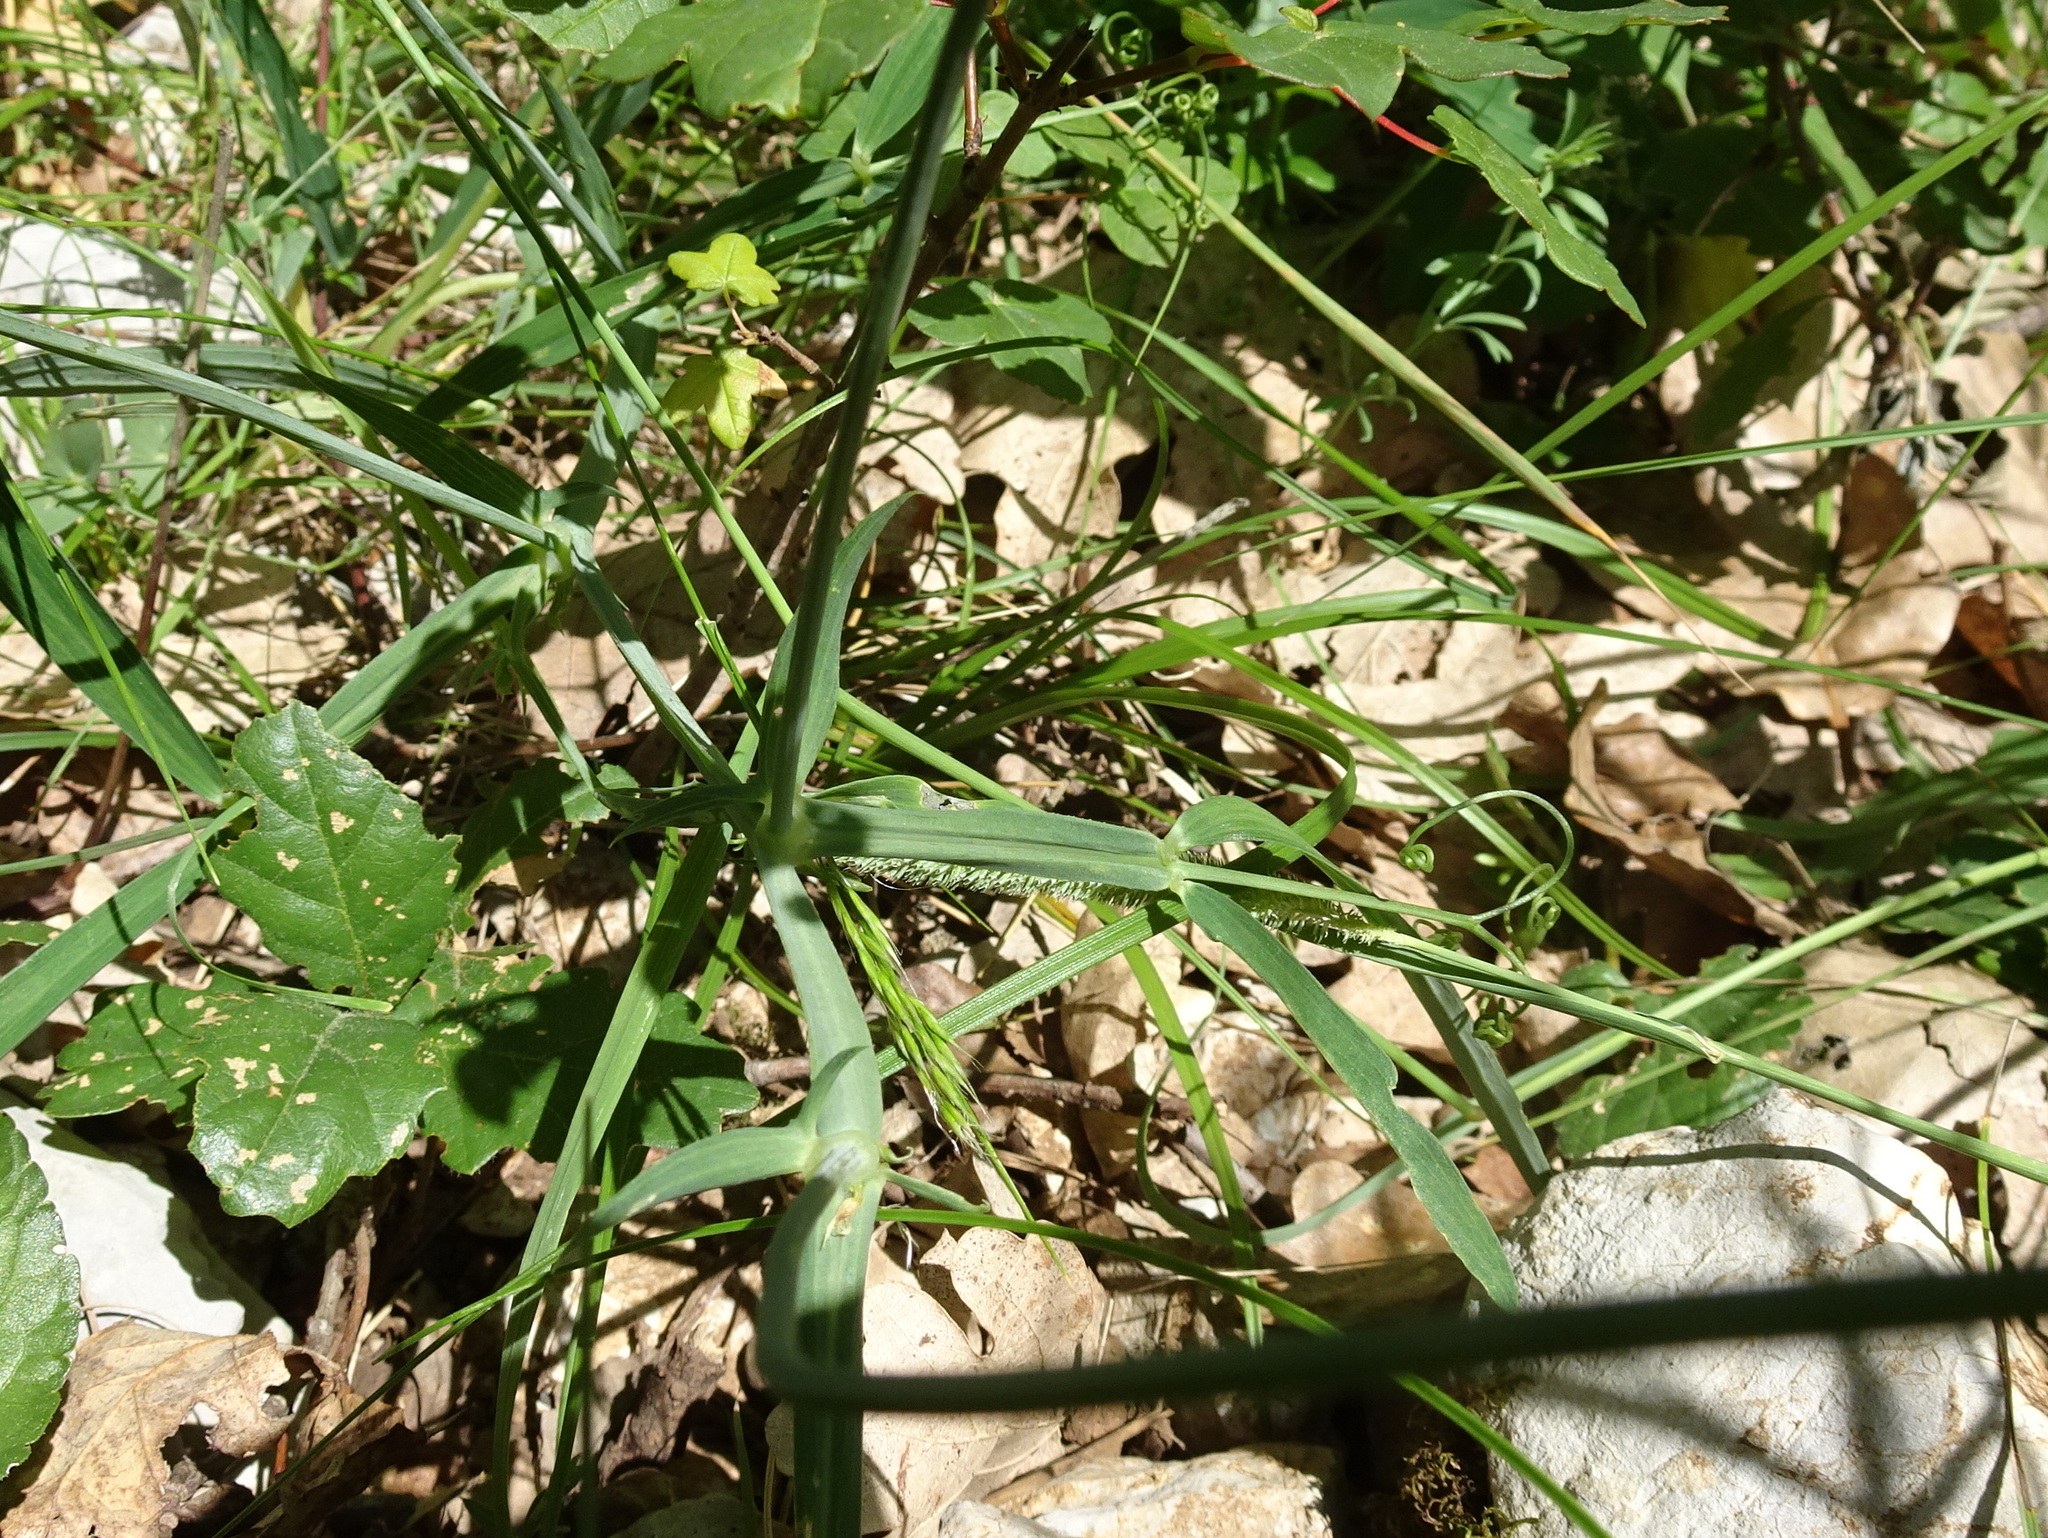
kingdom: Plantae
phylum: Tracheophyta
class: Magnoliopsida
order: Fabales
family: Fabaceae
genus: Lathyrus
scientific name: Lathyrus latifolius
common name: Perennial pea
